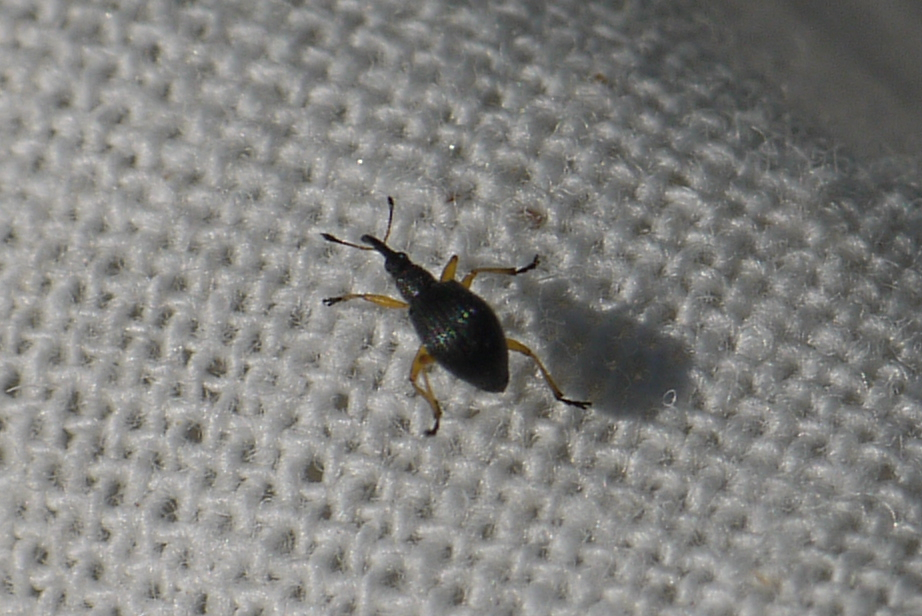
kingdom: Animalia
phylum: Arthropoda
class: Insecta
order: Coleoptera
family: Apionidae
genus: Protapion
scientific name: Protapion fulvipes
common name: White clover seed weevil
